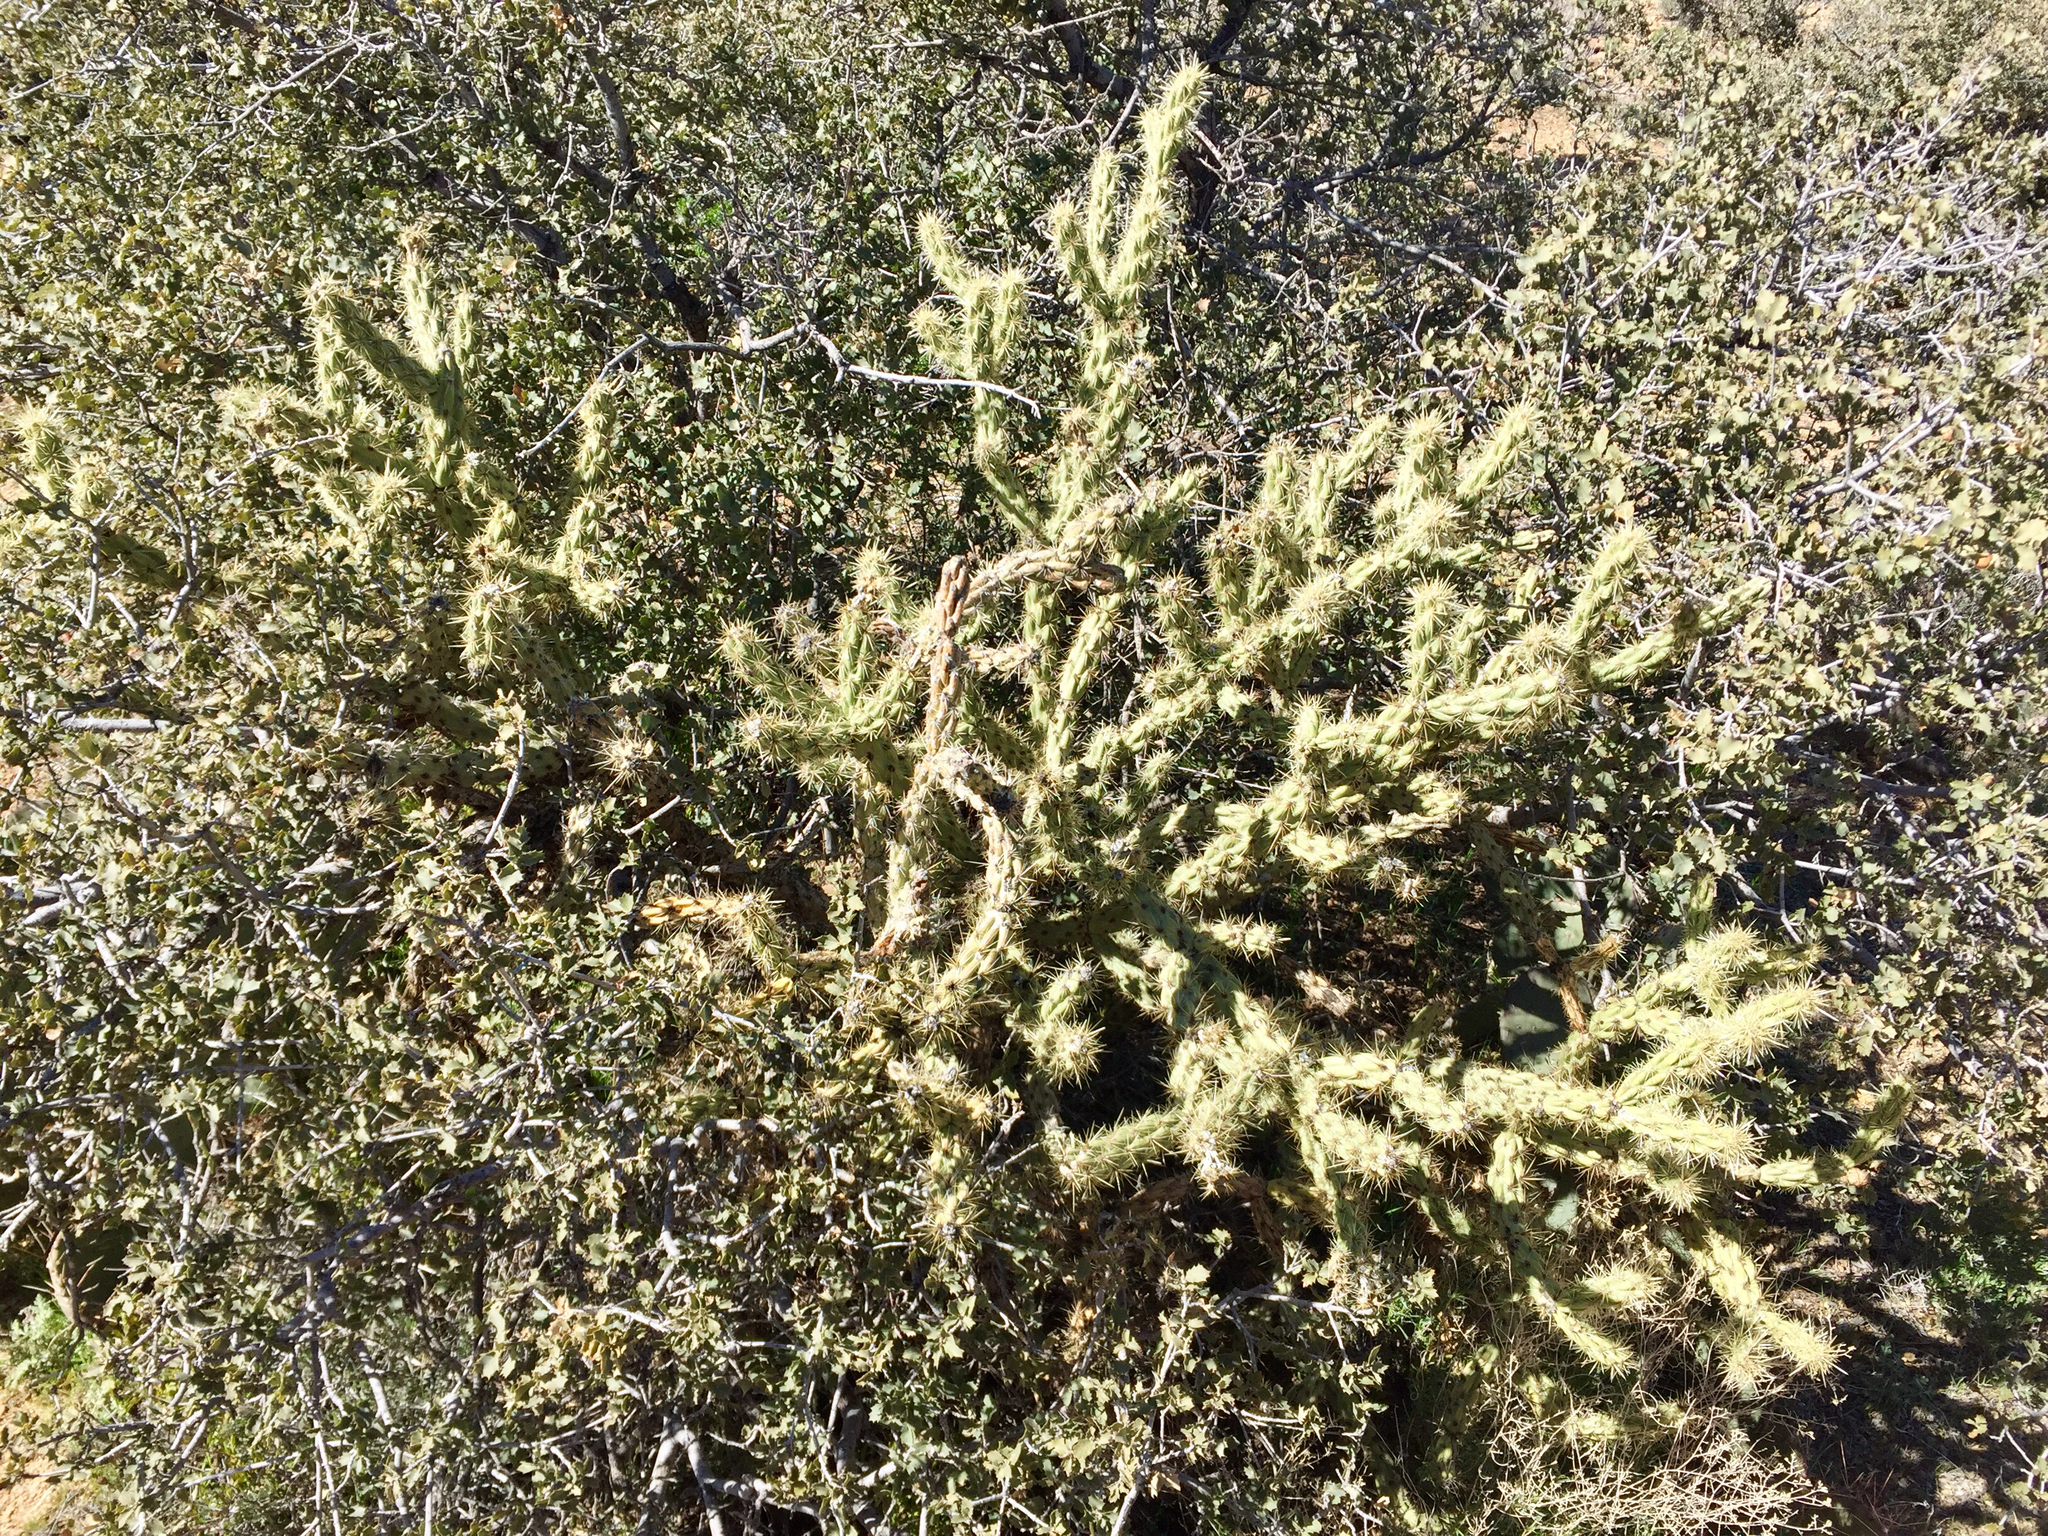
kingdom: Plantae
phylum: Tracheophyta
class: Magnoliopsida
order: Caryophyllales
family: Cactaceae
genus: Cylindropuntia
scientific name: Cylindropuntia acanthocarpa
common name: Buckhorn cholla
